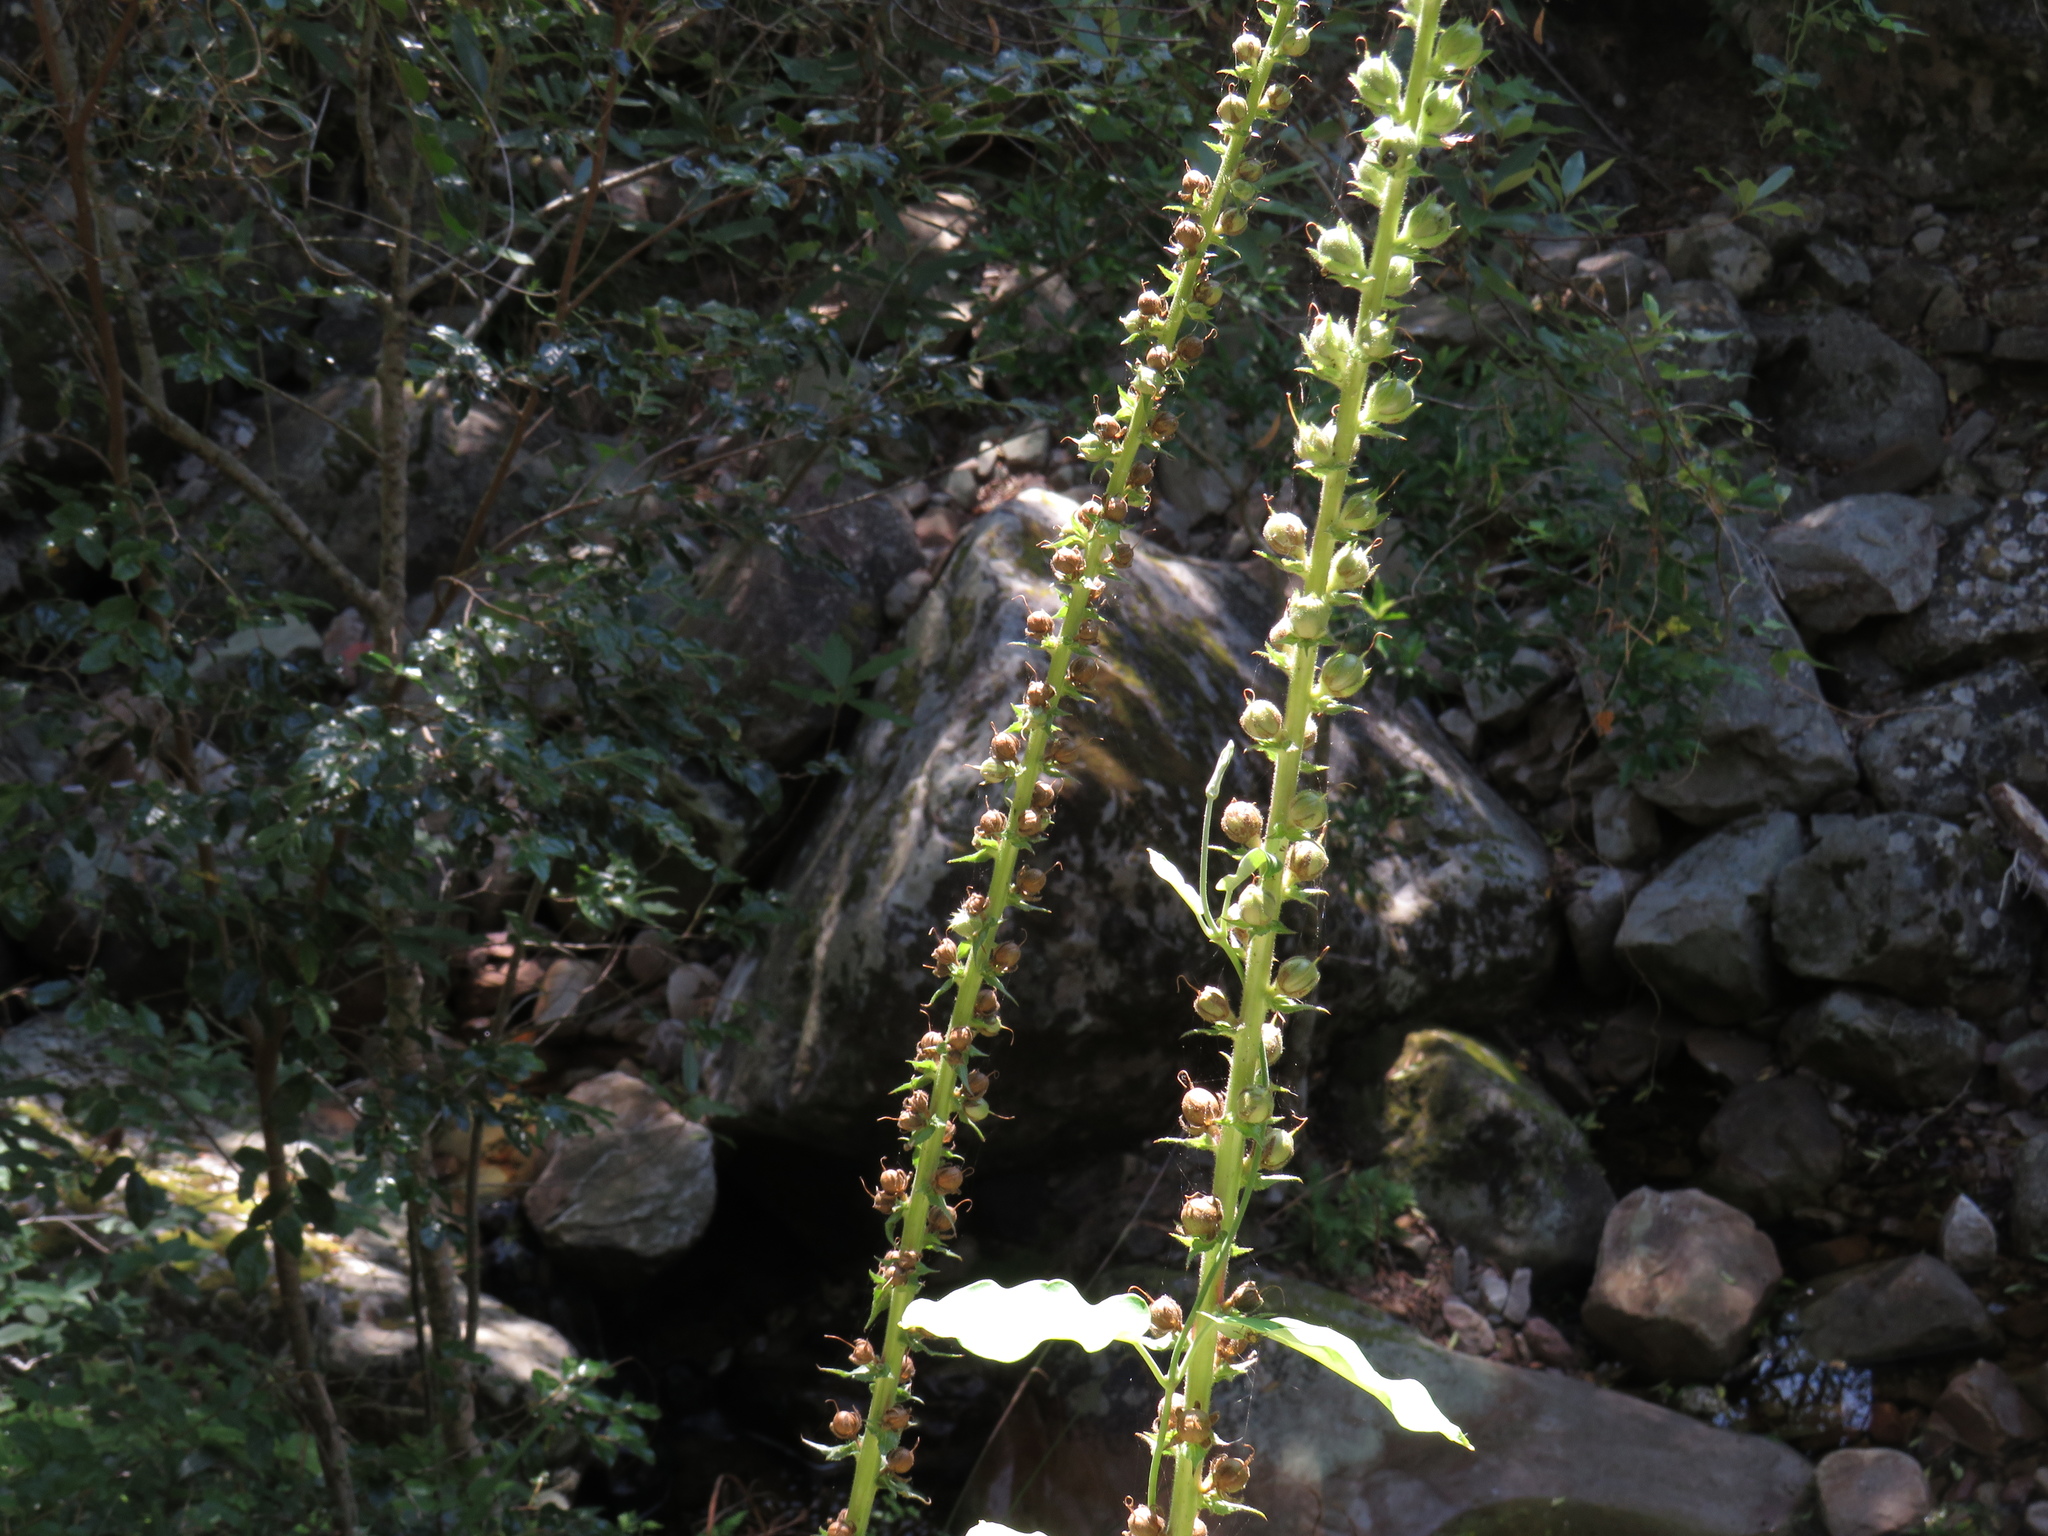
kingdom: Plantae
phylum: Tracheophyta
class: Magnoliopsida
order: Lamiales
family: Scrophulariaceae
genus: Verbascum
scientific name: Verbascum virgatum
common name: Twiggy mullein
